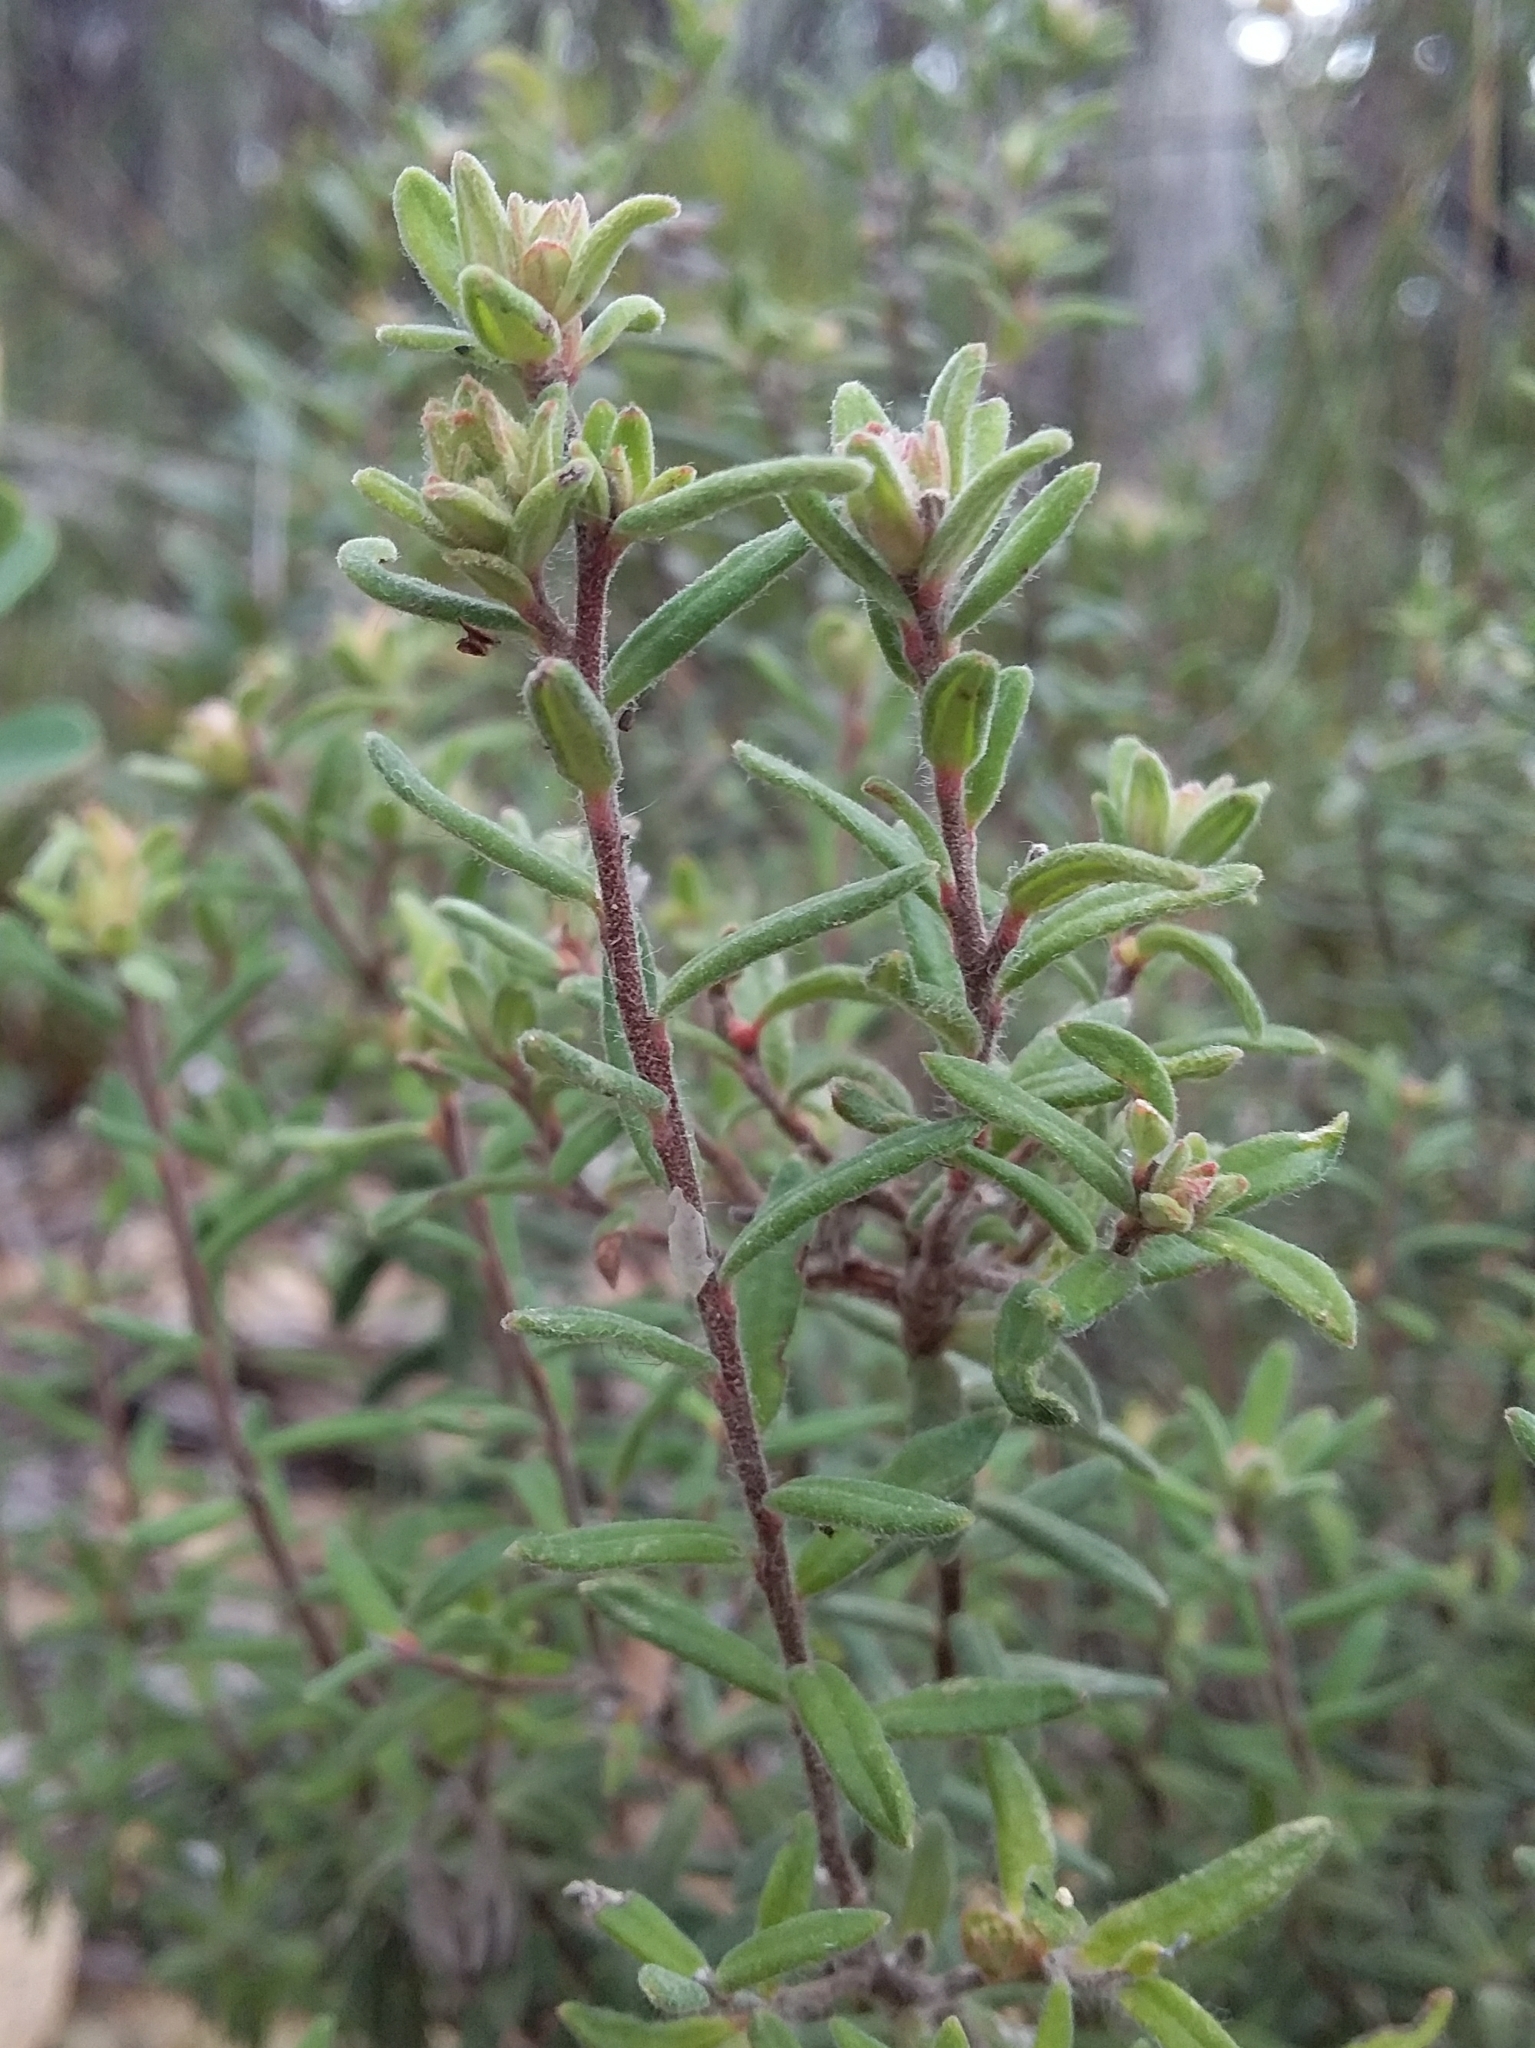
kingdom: Plantae
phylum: Tracheophyta
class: Magnoliopsida
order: Dilleniales
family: Dilleniaceae
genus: Hibbertia
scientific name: Hibbertia crinita
